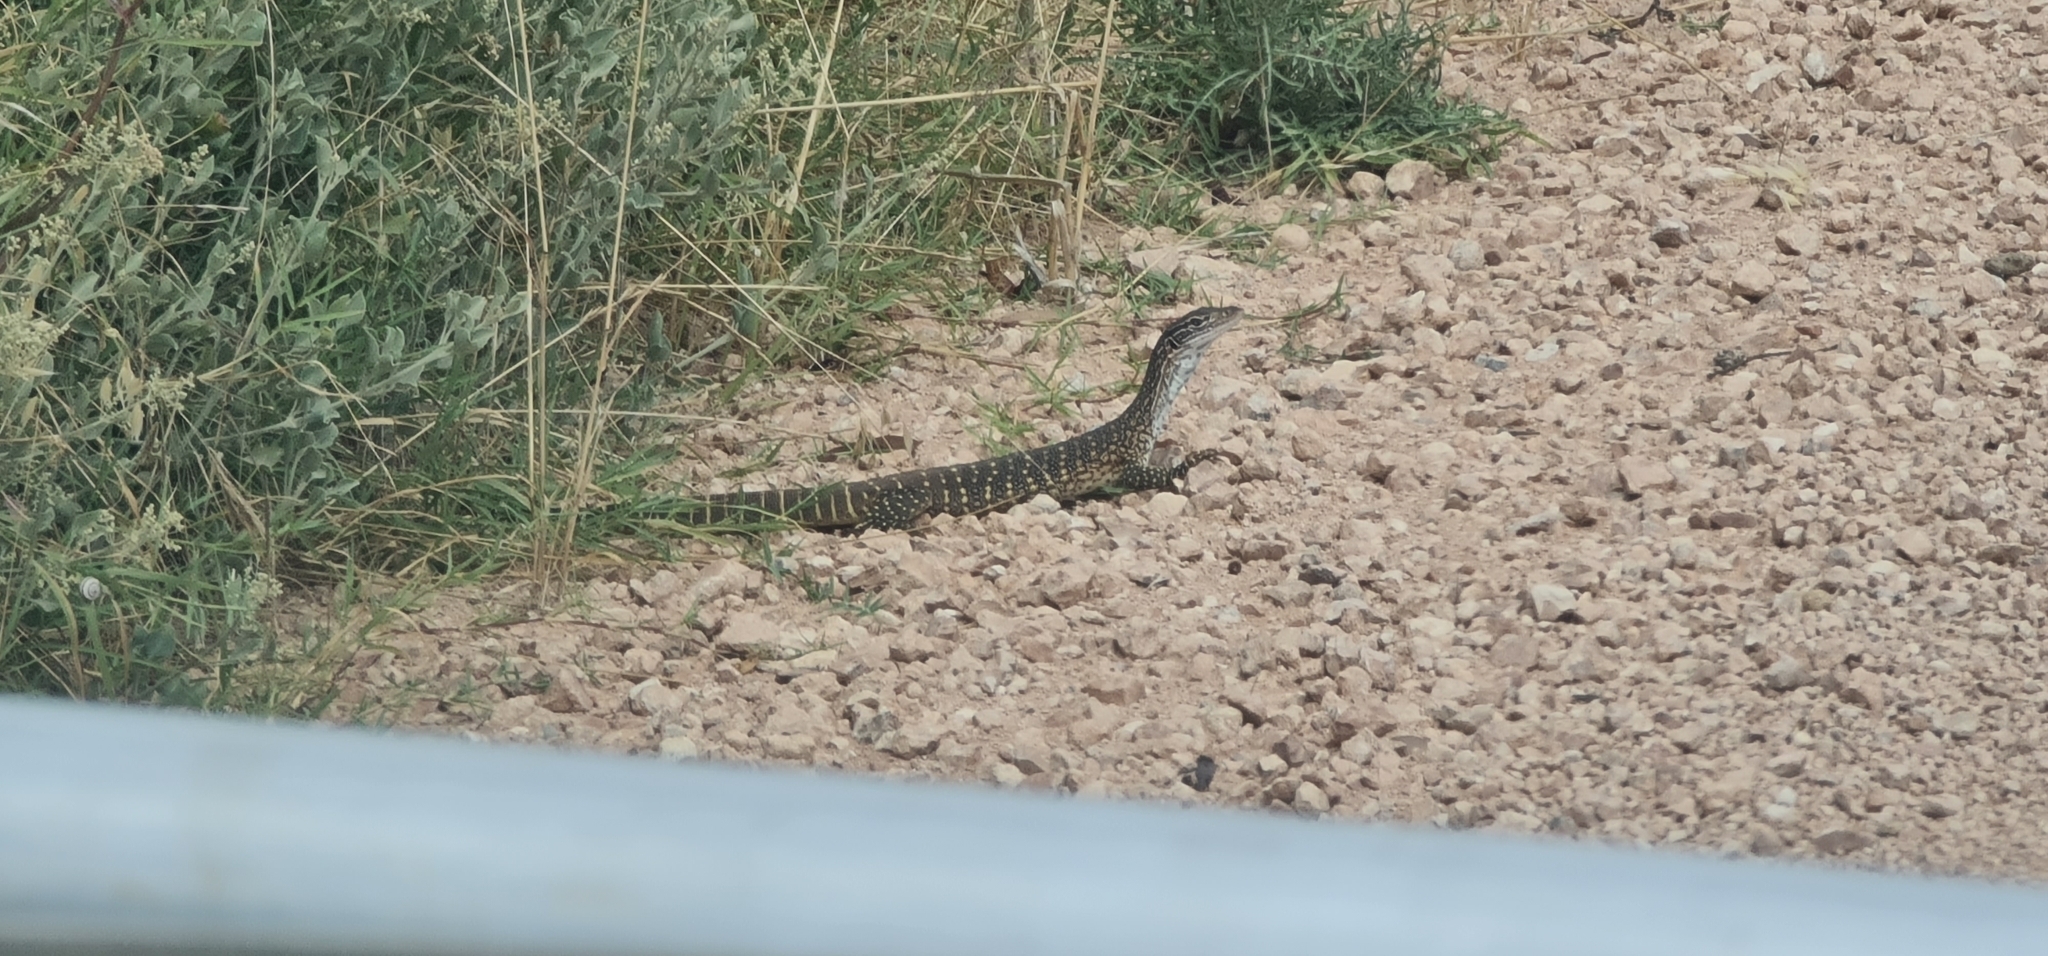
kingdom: Animalia
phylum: Chordata
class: Squamata
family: Varanidae
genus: Varanus
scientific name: Varanus gouldii
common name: Gould's goanna
